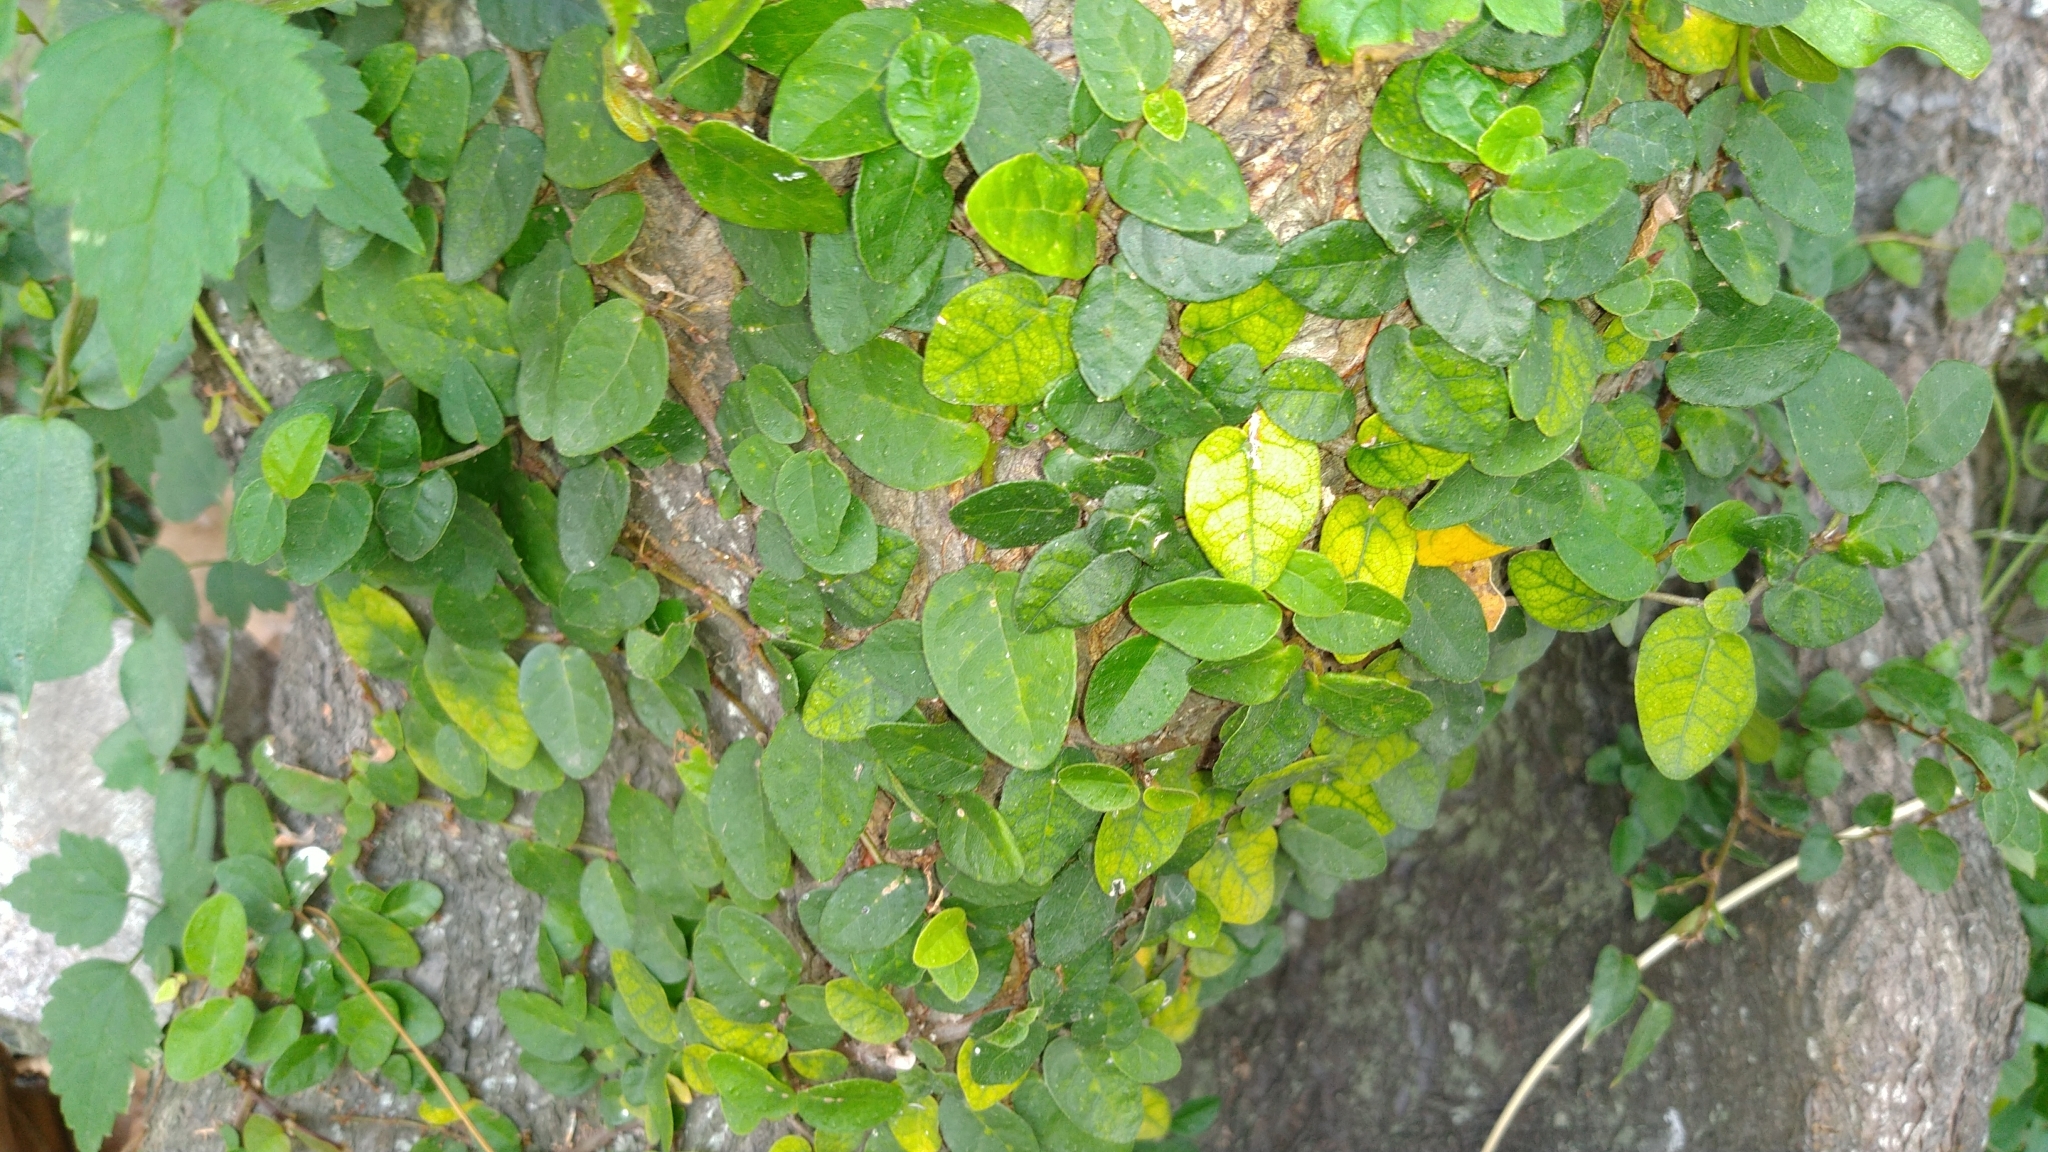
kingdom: Plantae
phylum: Tracheophyta
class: Magnoliopsida
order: Rosales
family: Moraceae
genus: Ficus
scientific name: Ficus pumila
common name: Climbingfig
